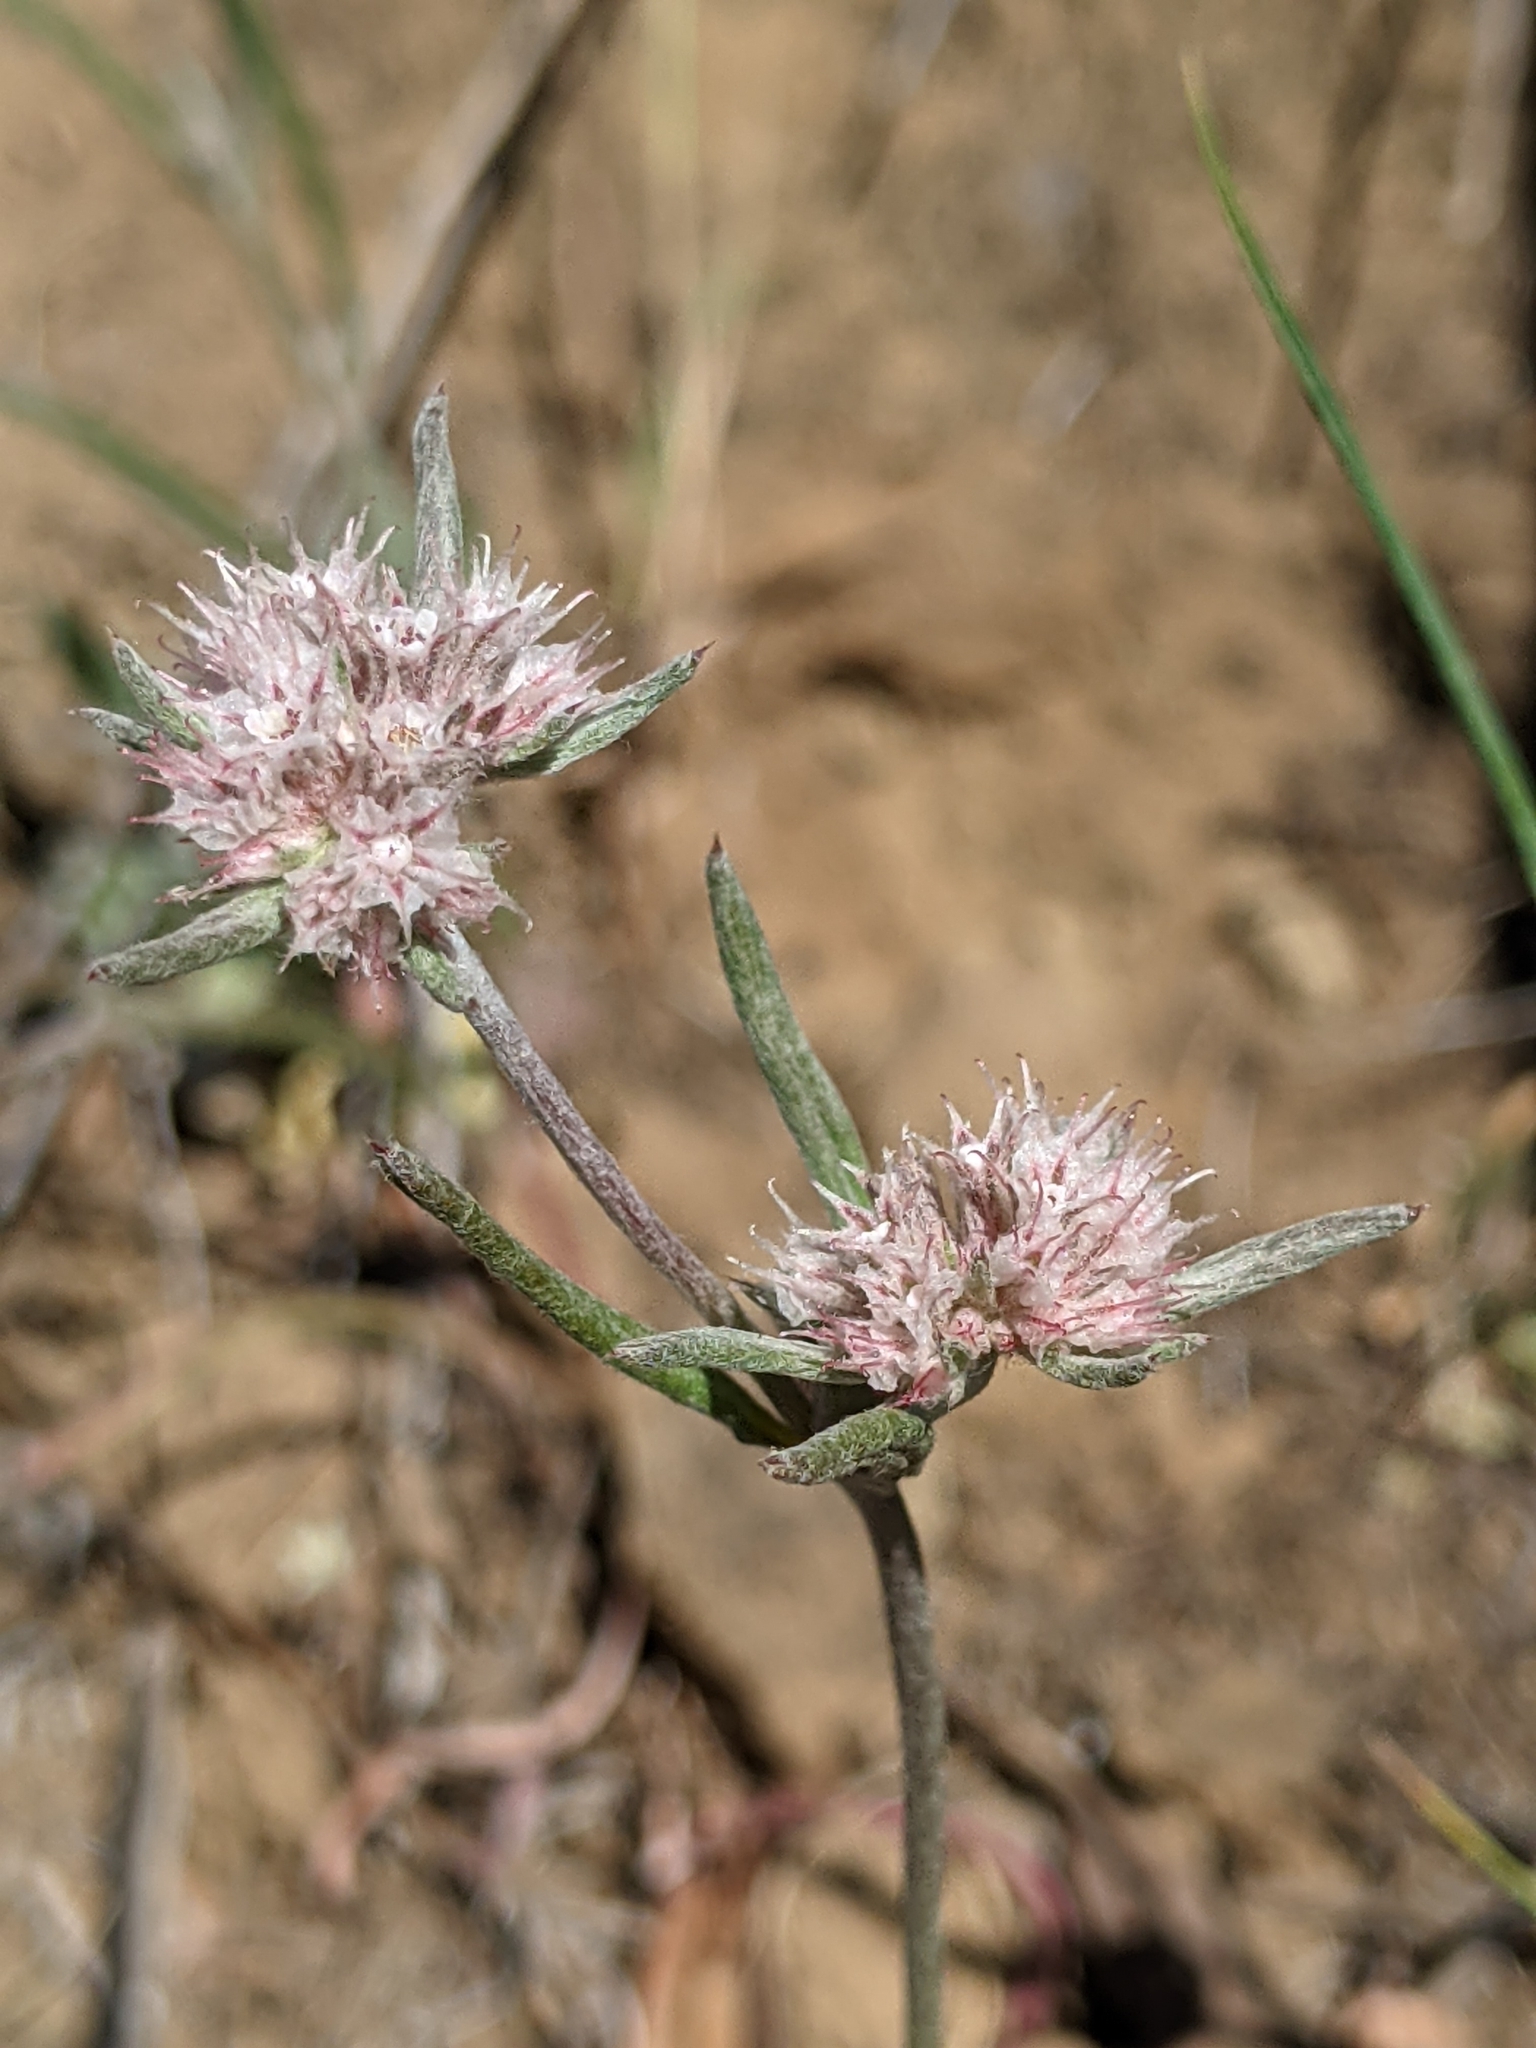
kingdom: Plantae
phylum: Tracheophyta
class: Magnoliopsida
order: Caryophyllales
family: Polygonaceae
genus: Chorizanthe
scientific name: Chorizanthe membranacea
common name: Pink spineflower
